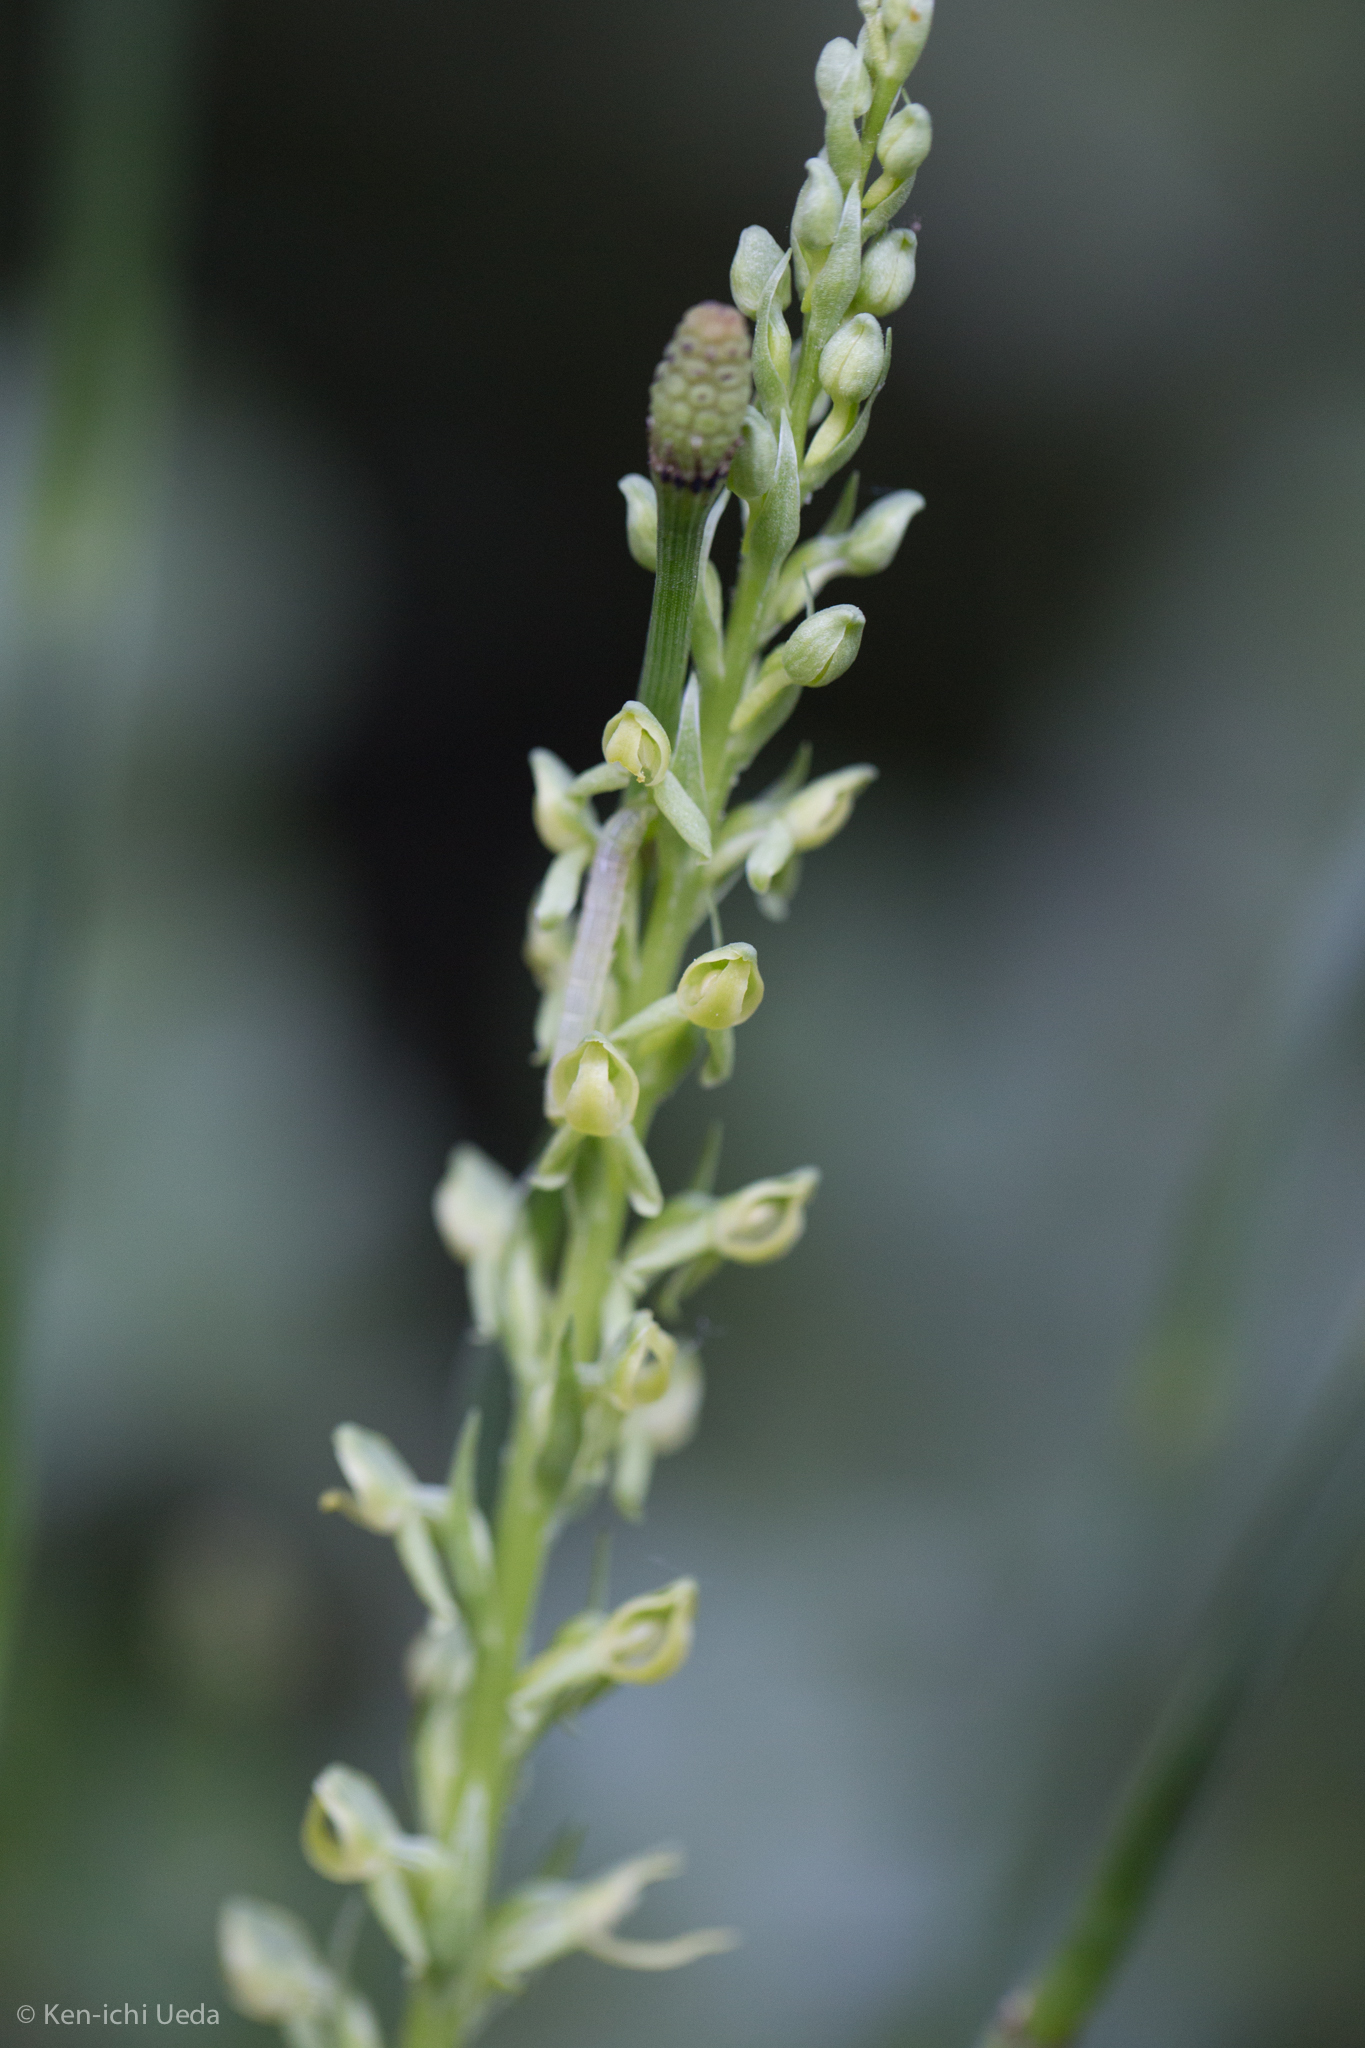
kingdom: Plantae
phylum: Tracheophyta
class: Liliopsida
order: Asparagales
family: Orchidaceae
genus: Platanthera
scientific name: Platanthera tescamnis
